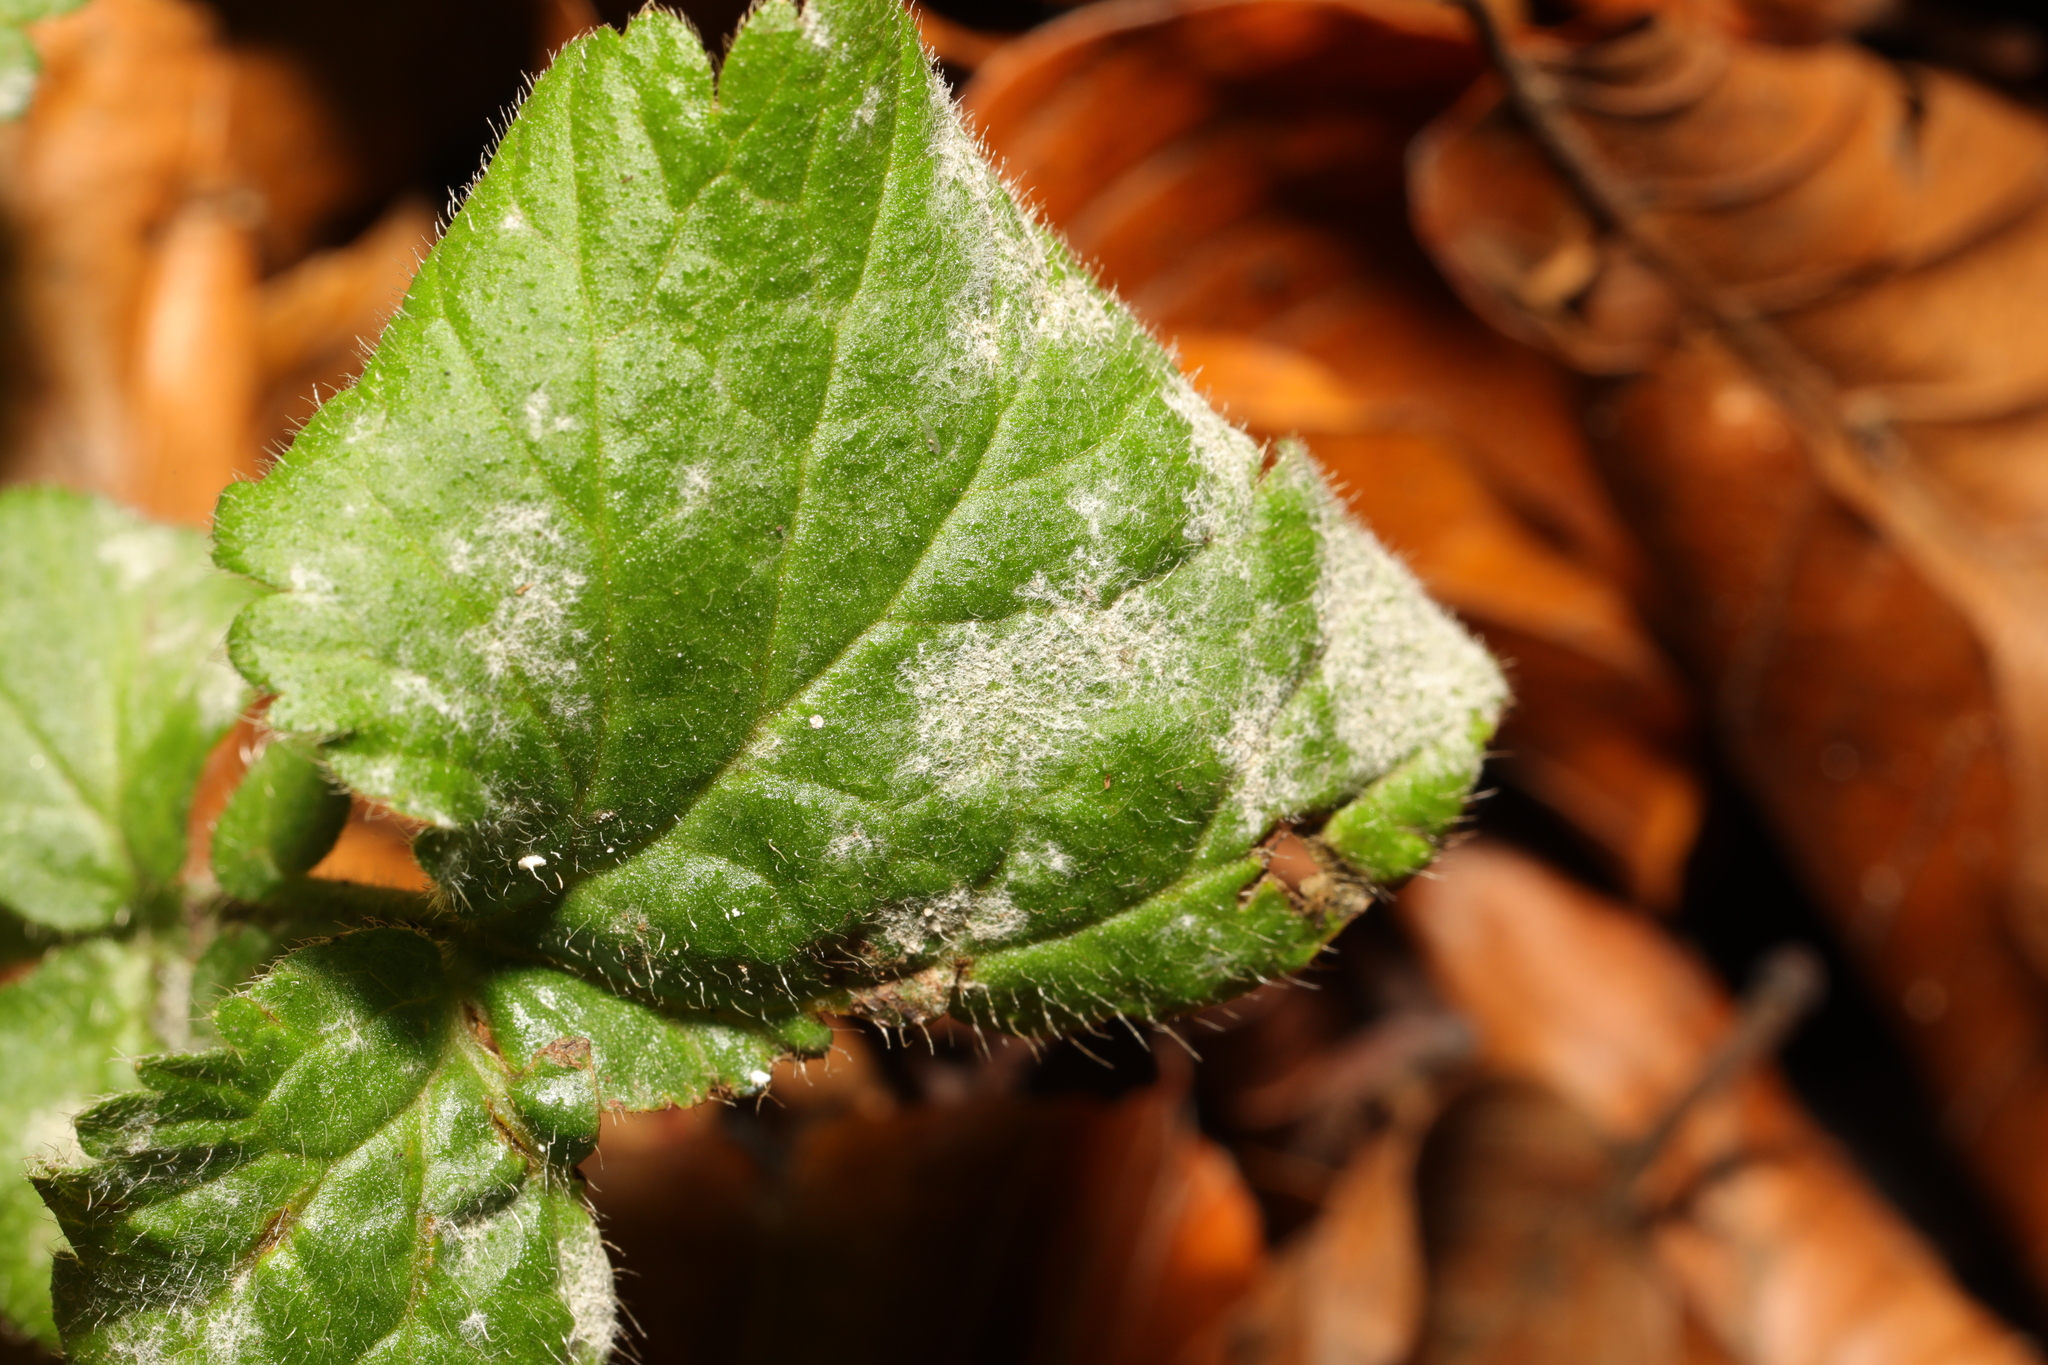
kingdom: Fungi
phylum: Ascomycota
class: Leotiomycetes
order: Helotiales
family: Erysiphaceae
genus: Podosphaera
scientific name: Podosphaera aphanis
